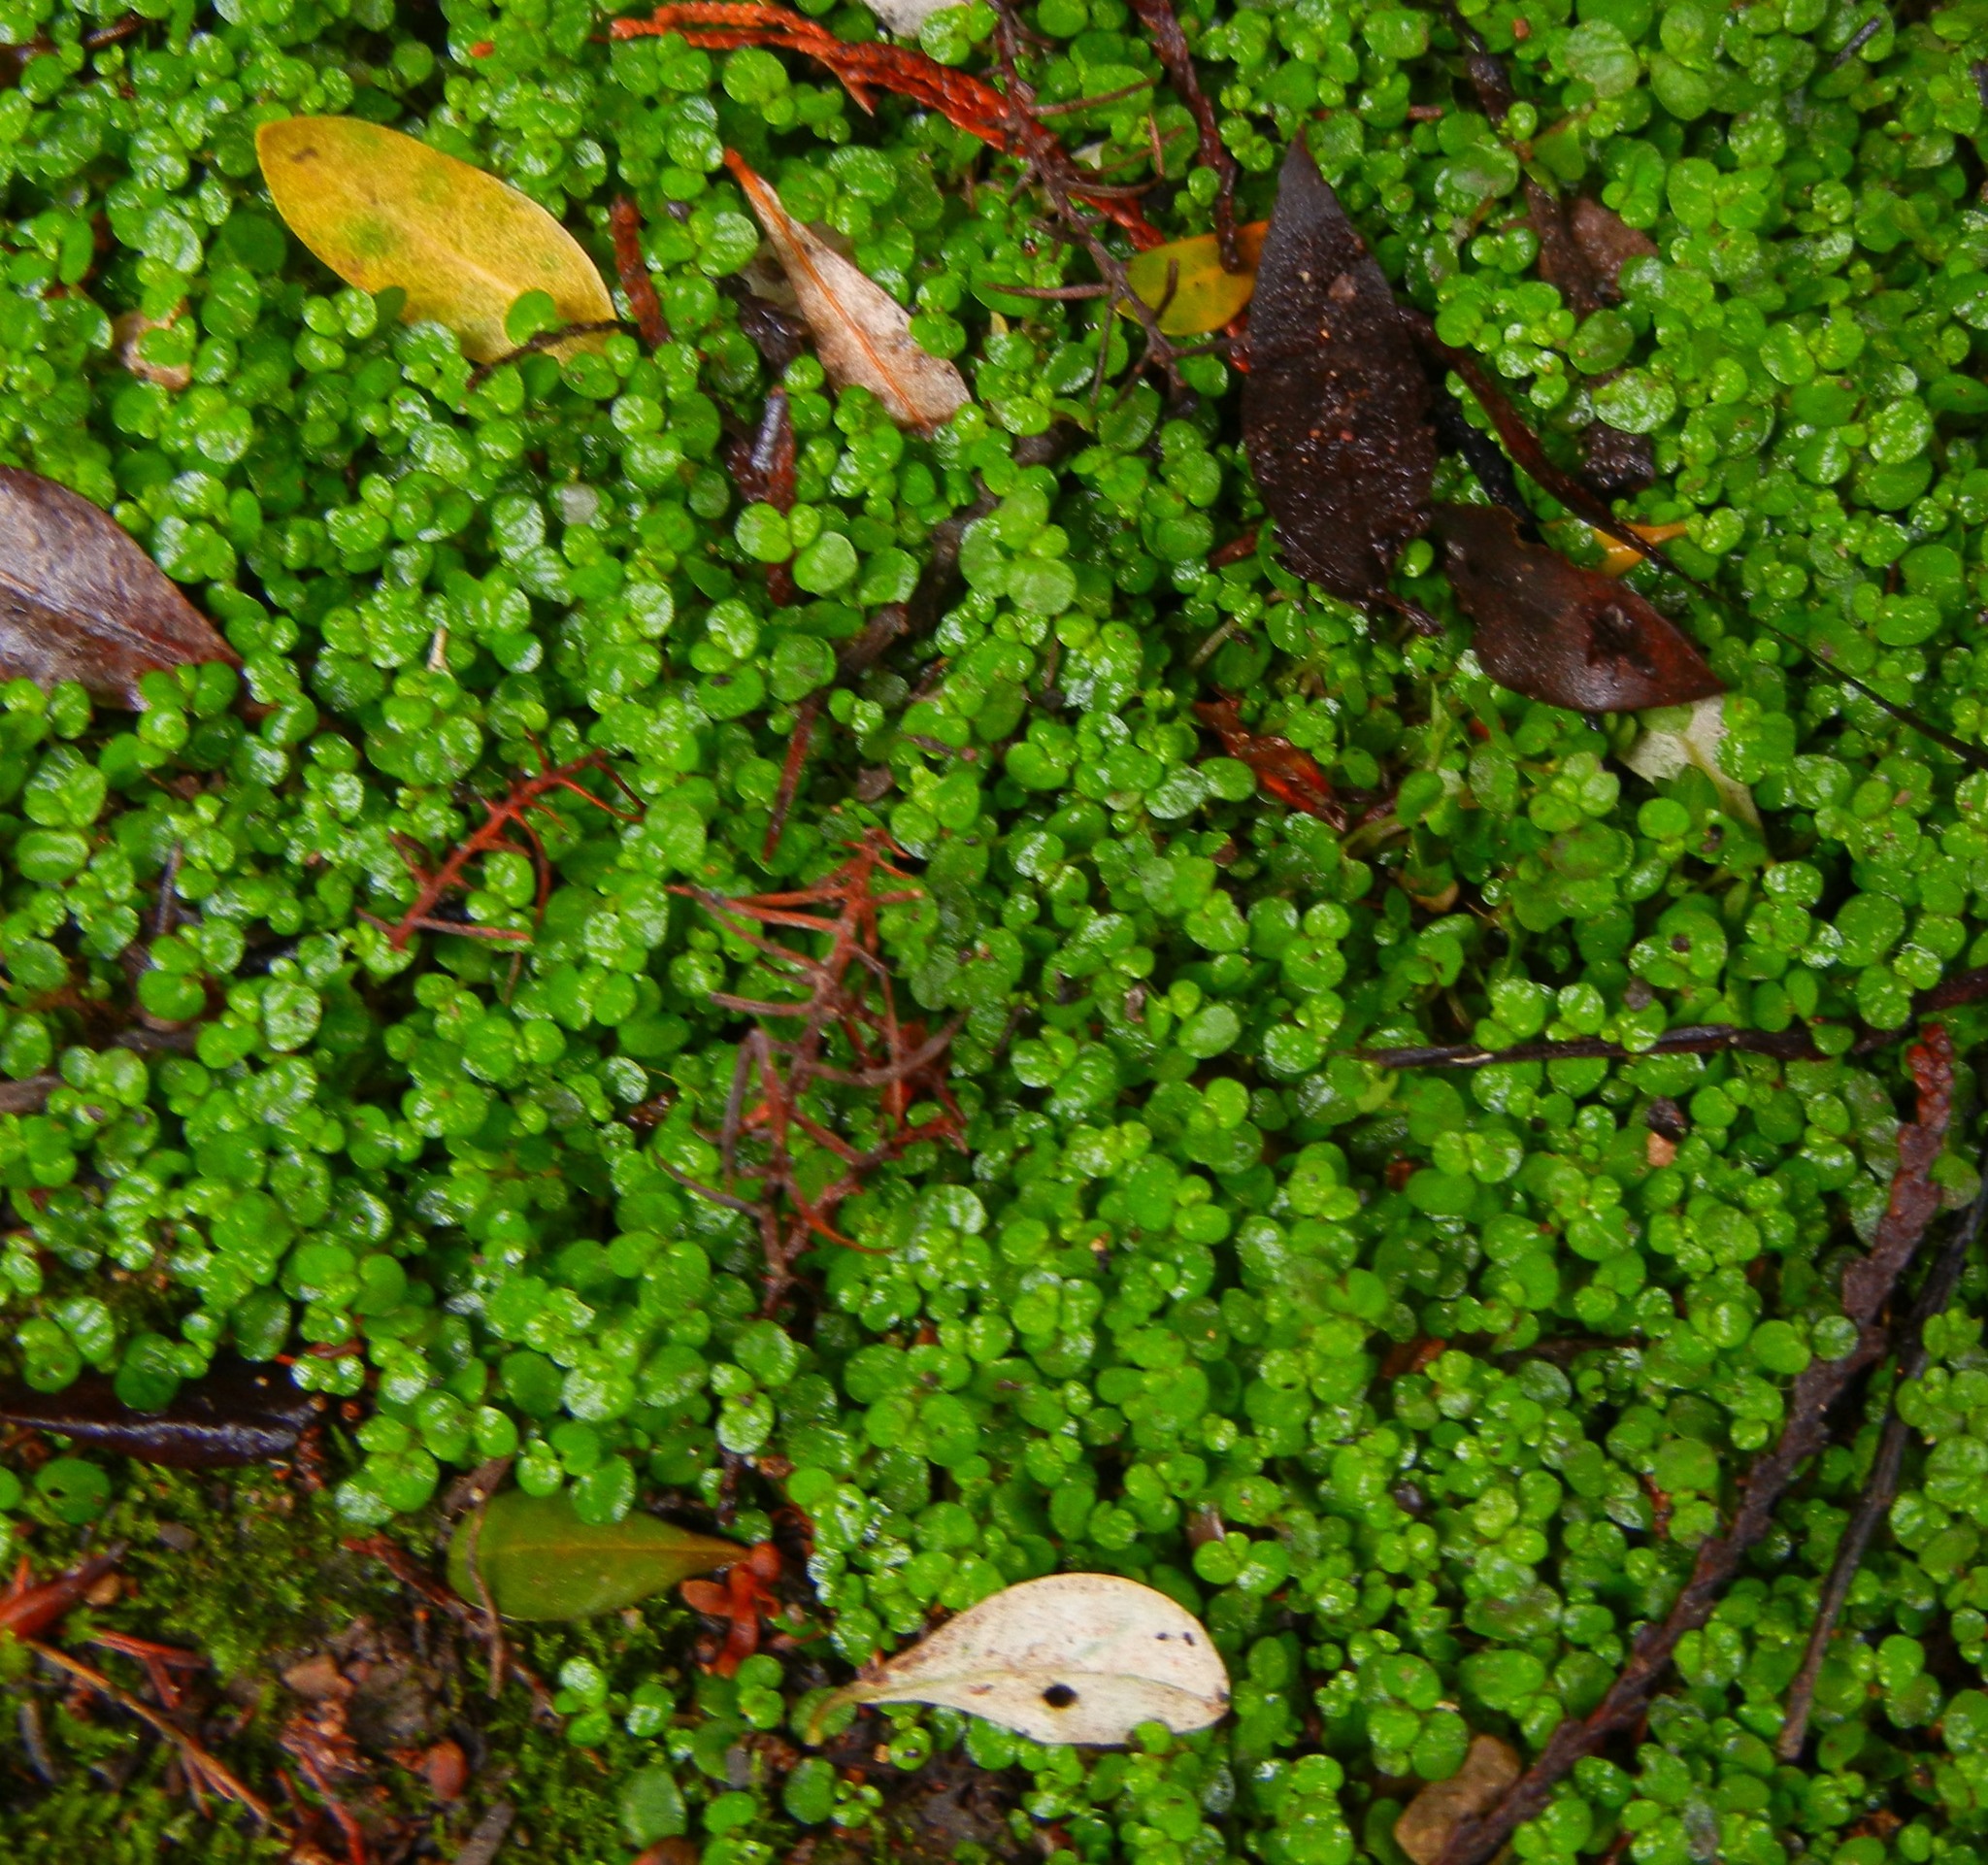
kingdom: Plantae
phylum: Tracheophyta
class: Magnoliopsida
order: Rosales
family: Urticaceae
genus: Soleirolia
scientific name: Soleirolia soleirolii
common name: Mind-your-own-business
